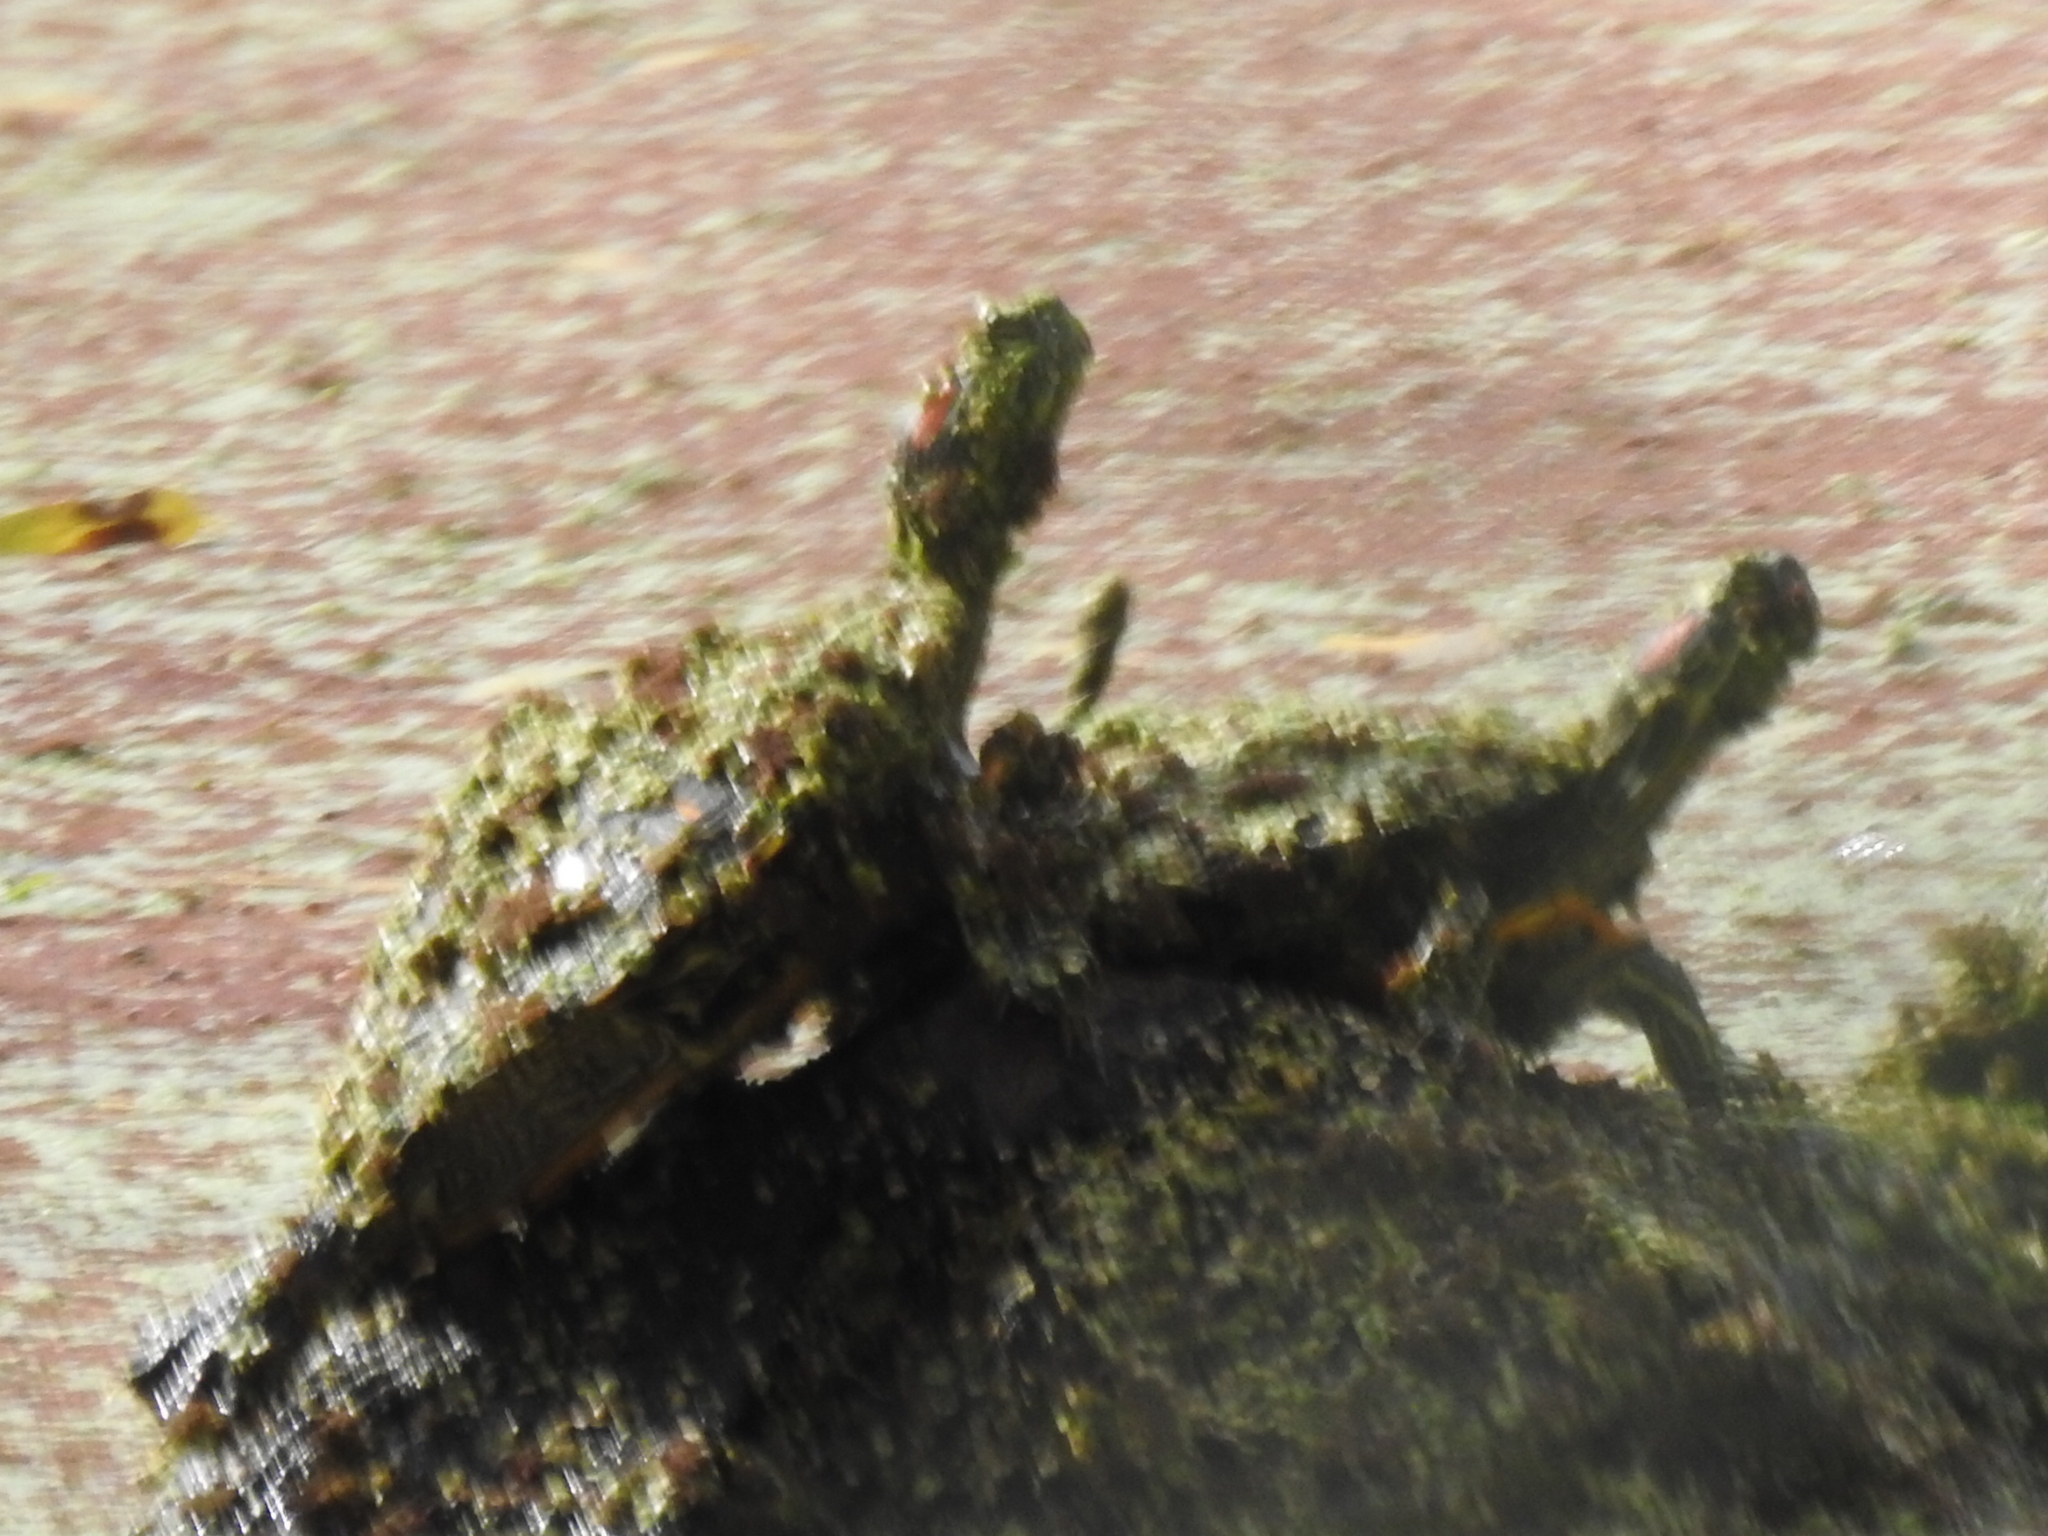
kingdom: Animalia
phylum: Chordata
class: Testudines
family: Emydidae
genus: Trachemys
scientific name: Trachemys scripta
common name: Slider
